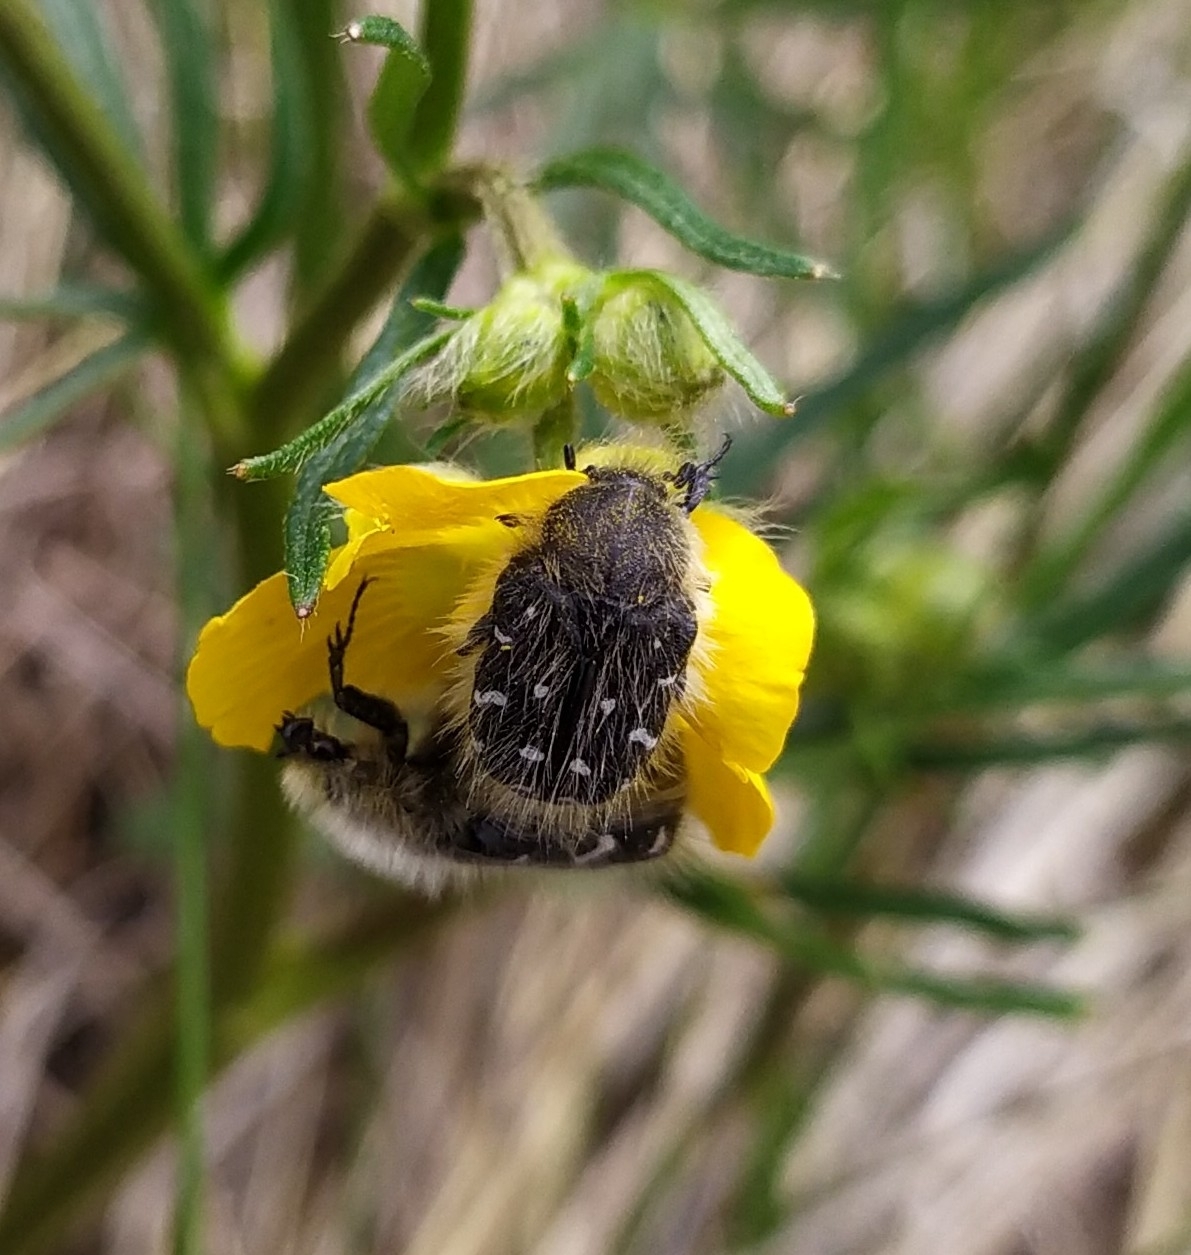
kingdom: Animalia
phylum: Arthropoda
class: Insecta
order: Coleoptera
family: Scarabaeidae
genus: Tropinota
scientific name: Tropinota hirta
